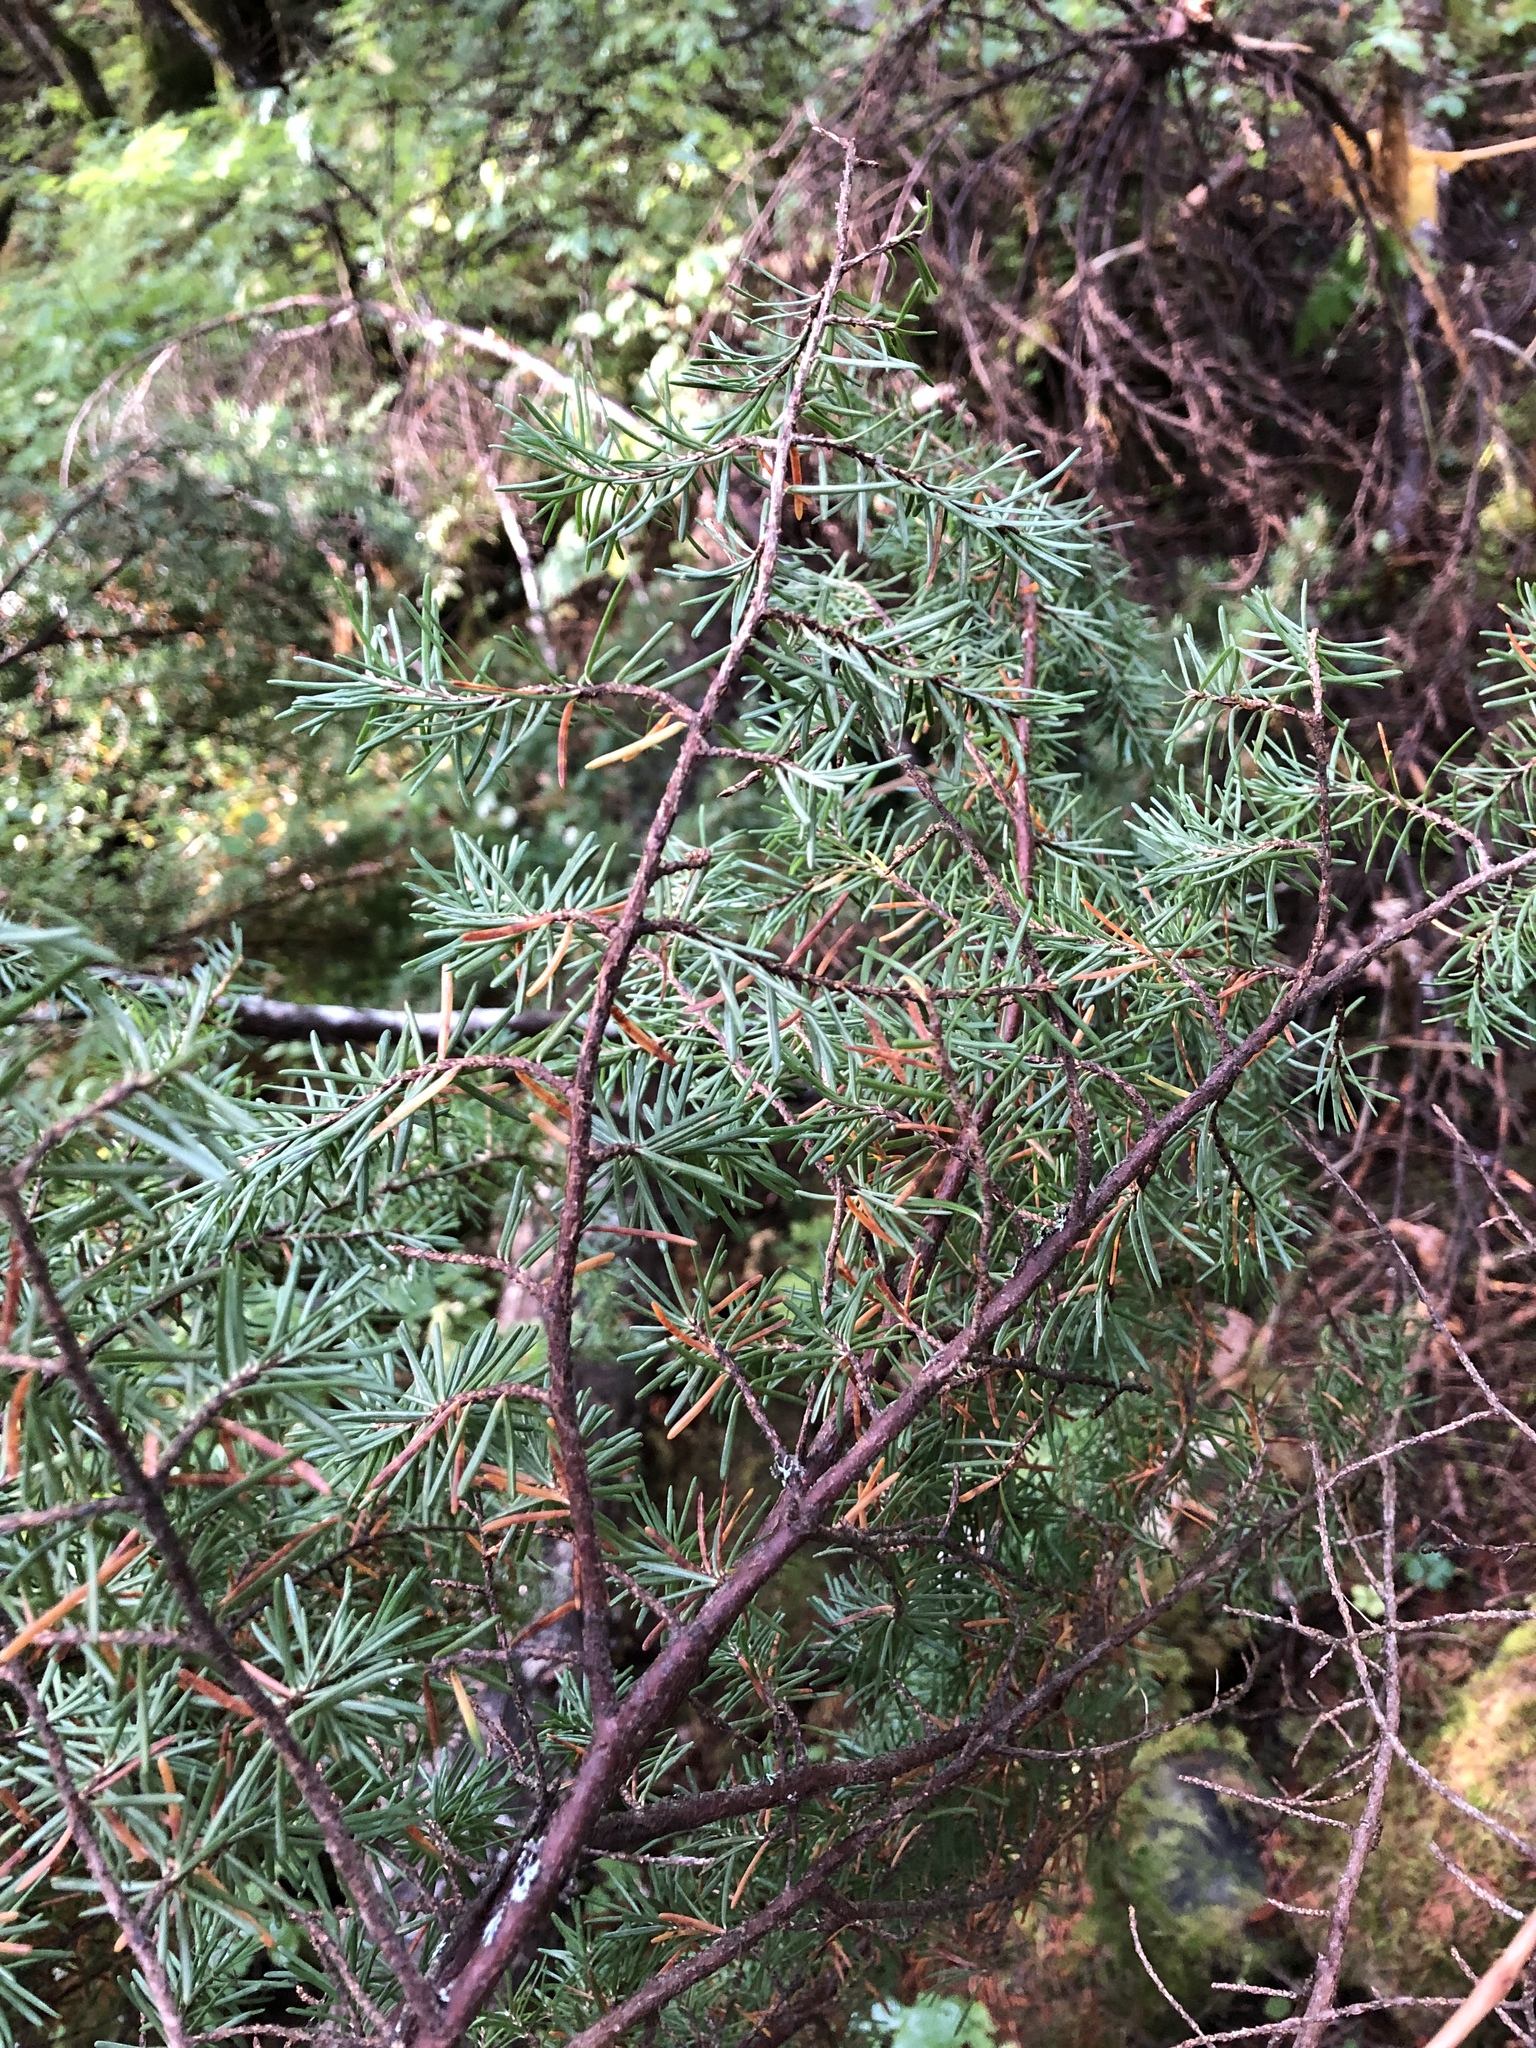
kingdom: Plantae
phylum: Tracheophyta
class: Pinopsida
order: Pinales
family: Pinaceae
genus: Tsuga
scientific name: Tsuga mertensiana
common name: Mountain hemlock
